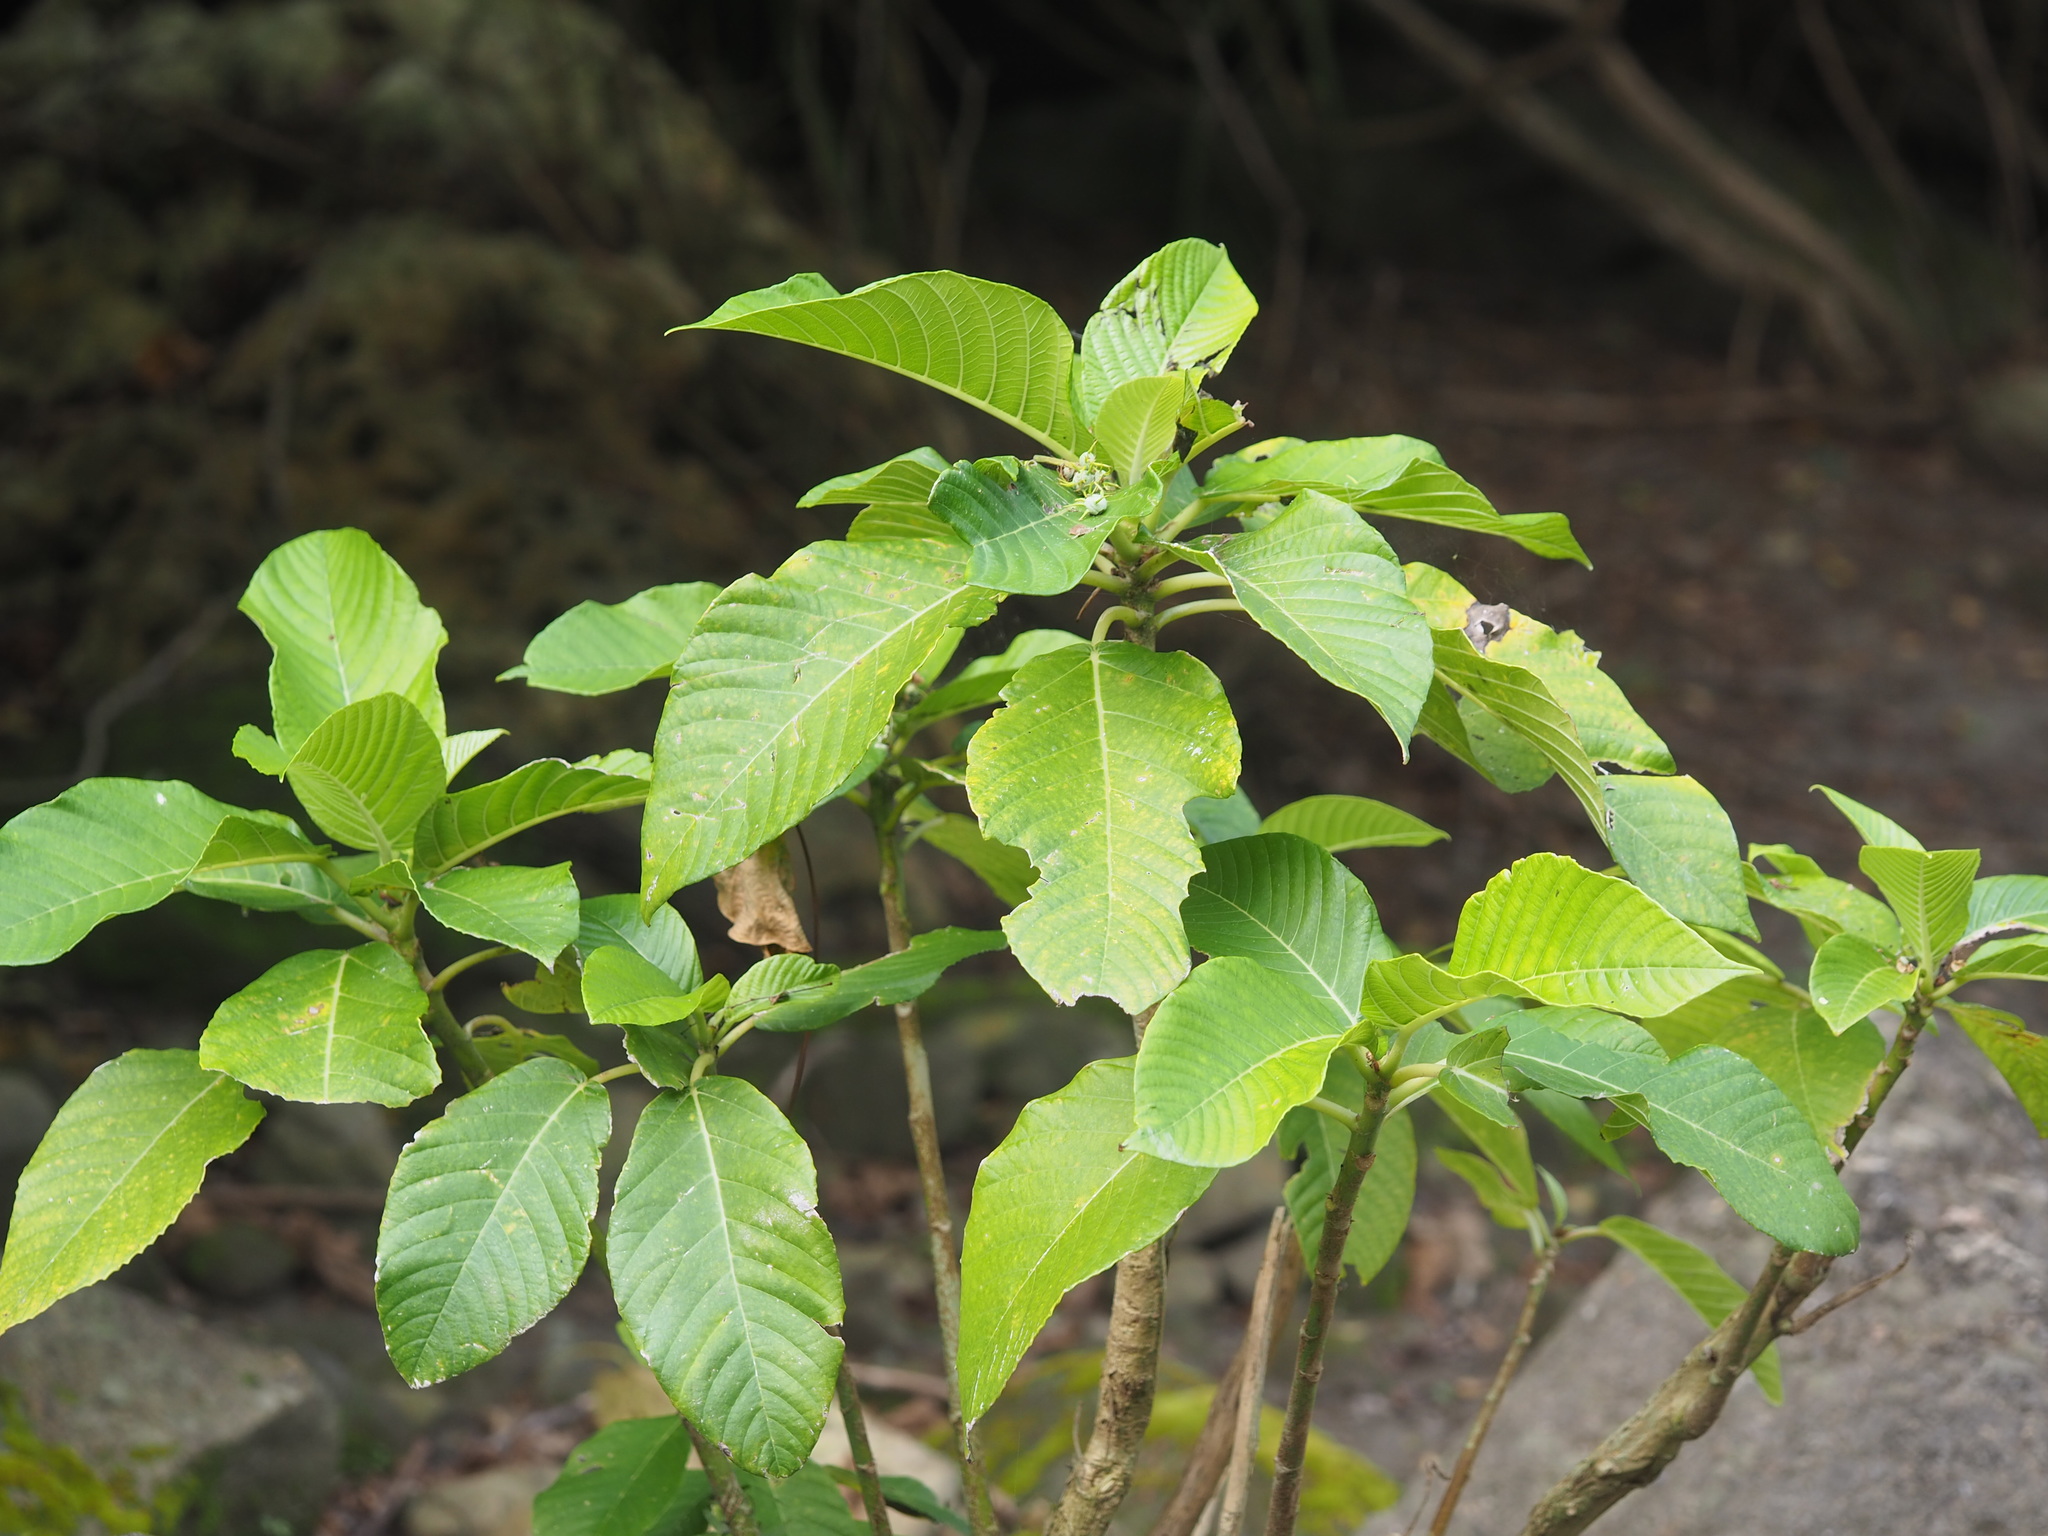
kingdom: Plantae
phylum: Tracheophyta
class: Magnoliopsida
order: Rosales
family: Urticaceae
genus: Dendrocnide
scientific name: Dendrocnide meyeniana
